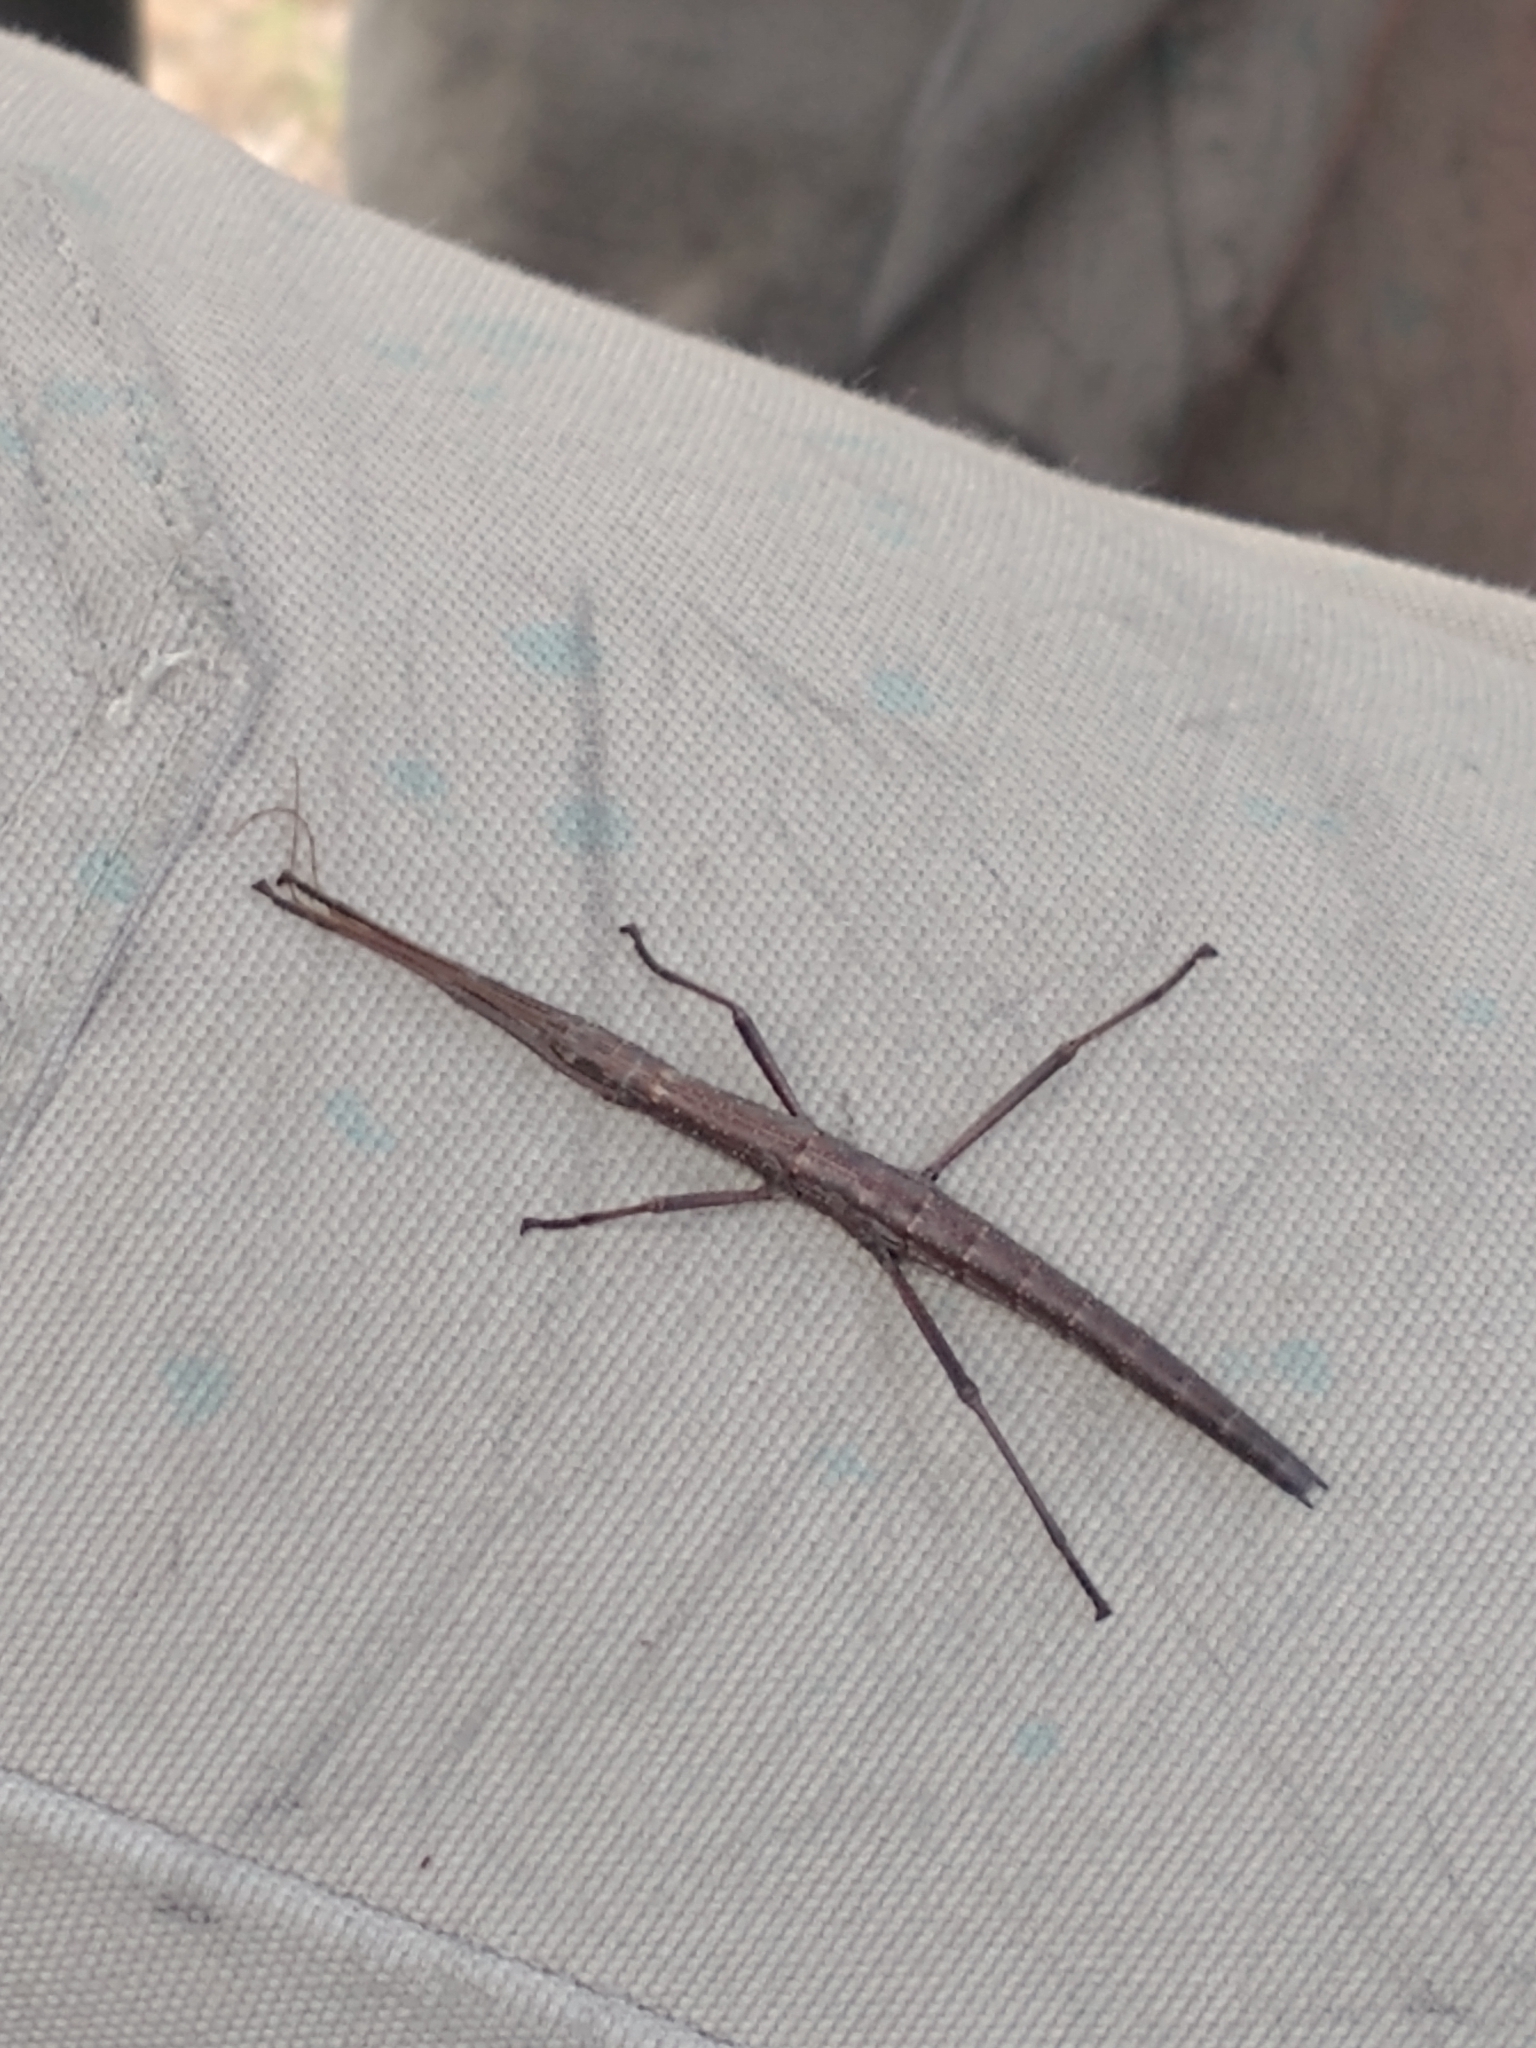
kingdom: Animalia
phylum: Arthropoda
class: Insecta
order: Phasmida
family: Pseudophasmatidae
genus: Anisomorpha
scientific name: Anisomorpha buprestoides
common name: Florida stick insect
